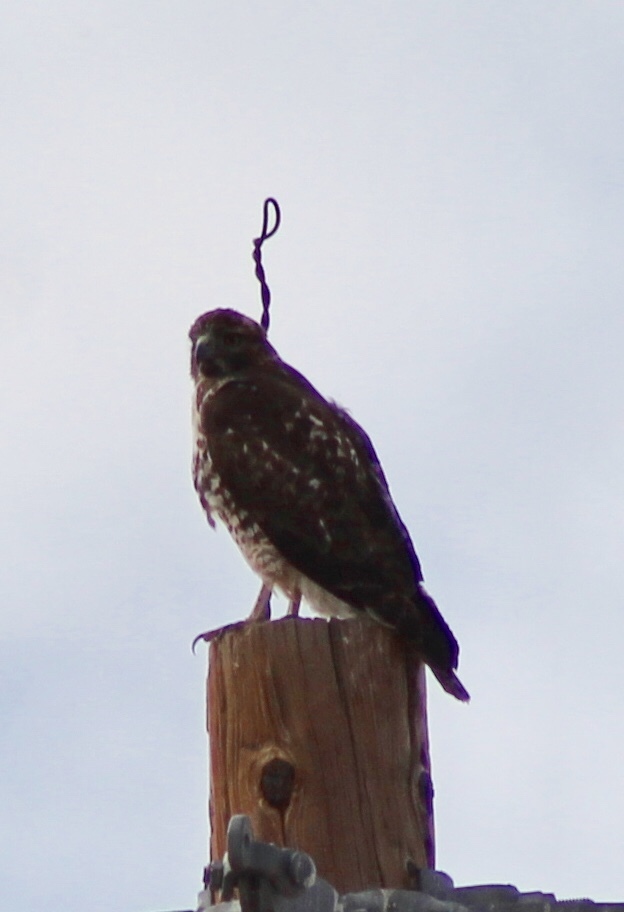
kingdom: Animalia
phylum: Chordata
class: Aves
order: Accipitriformes
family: Accipitridae
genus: Buteo
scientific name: Buteo jamaicensis
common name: Red-tailed hawk
